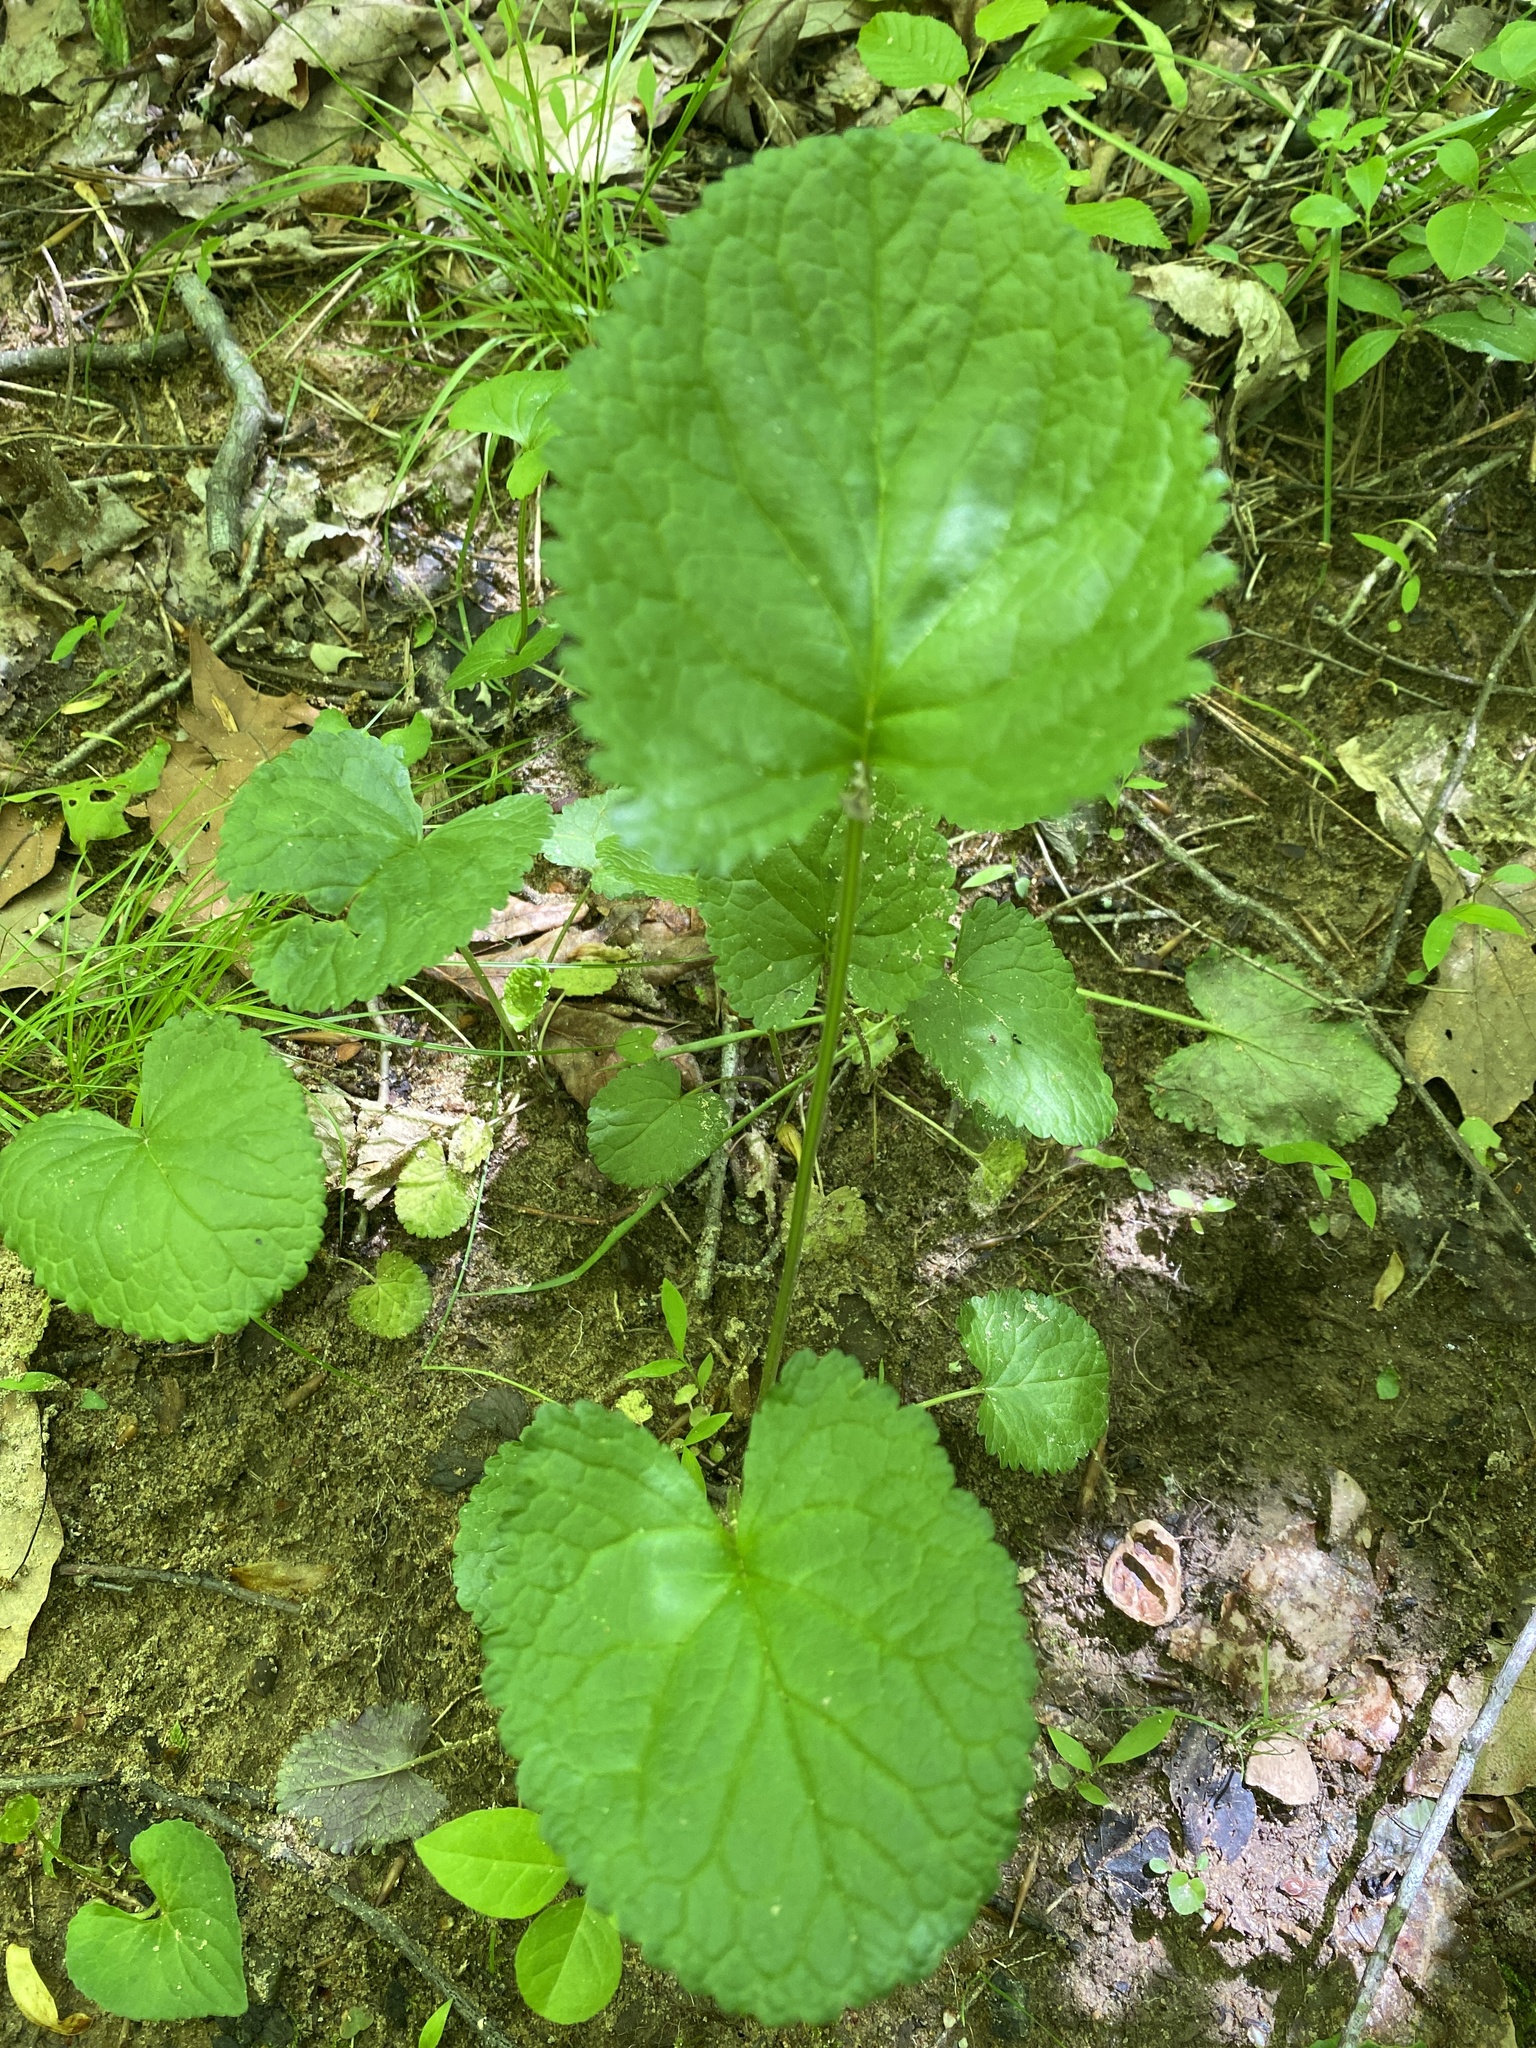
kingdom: Plantae
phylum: Tracheophyta
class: Magnoliopsida
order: Asterales
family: Asteraceae
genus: Packera
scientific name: Packera aurea
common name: Golden groundsel
